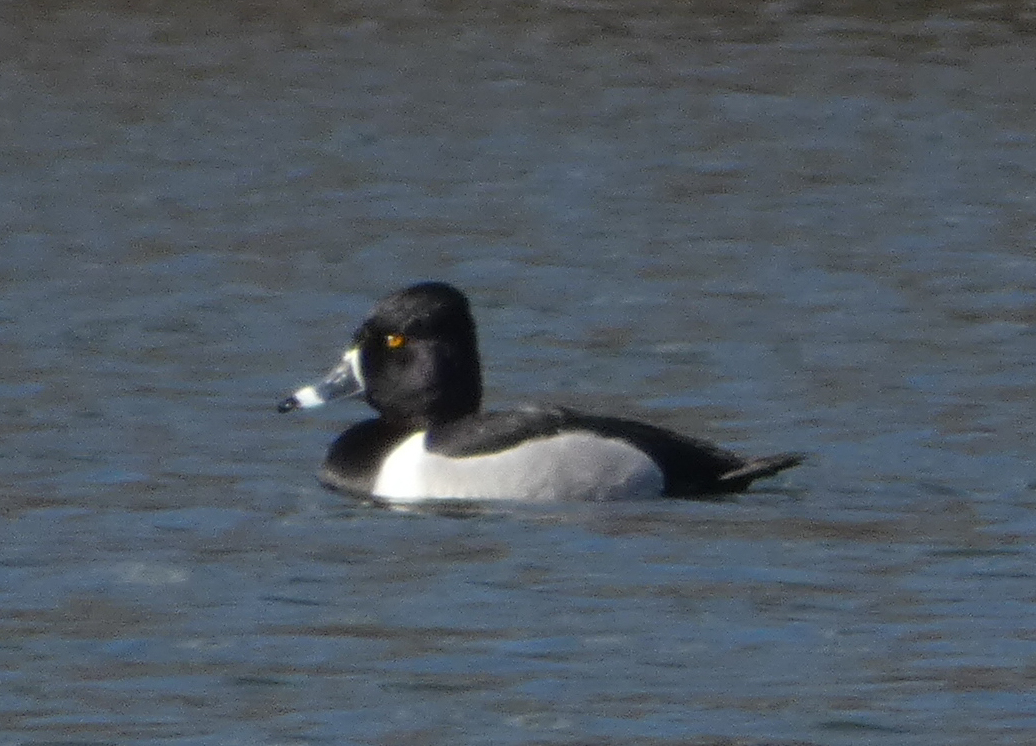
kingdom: Animalia
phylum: Chordata
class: Aves
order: Anseriformes
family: Anatidae
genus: Aythya
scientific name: Aythya collaris
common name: Ring-necked duck
